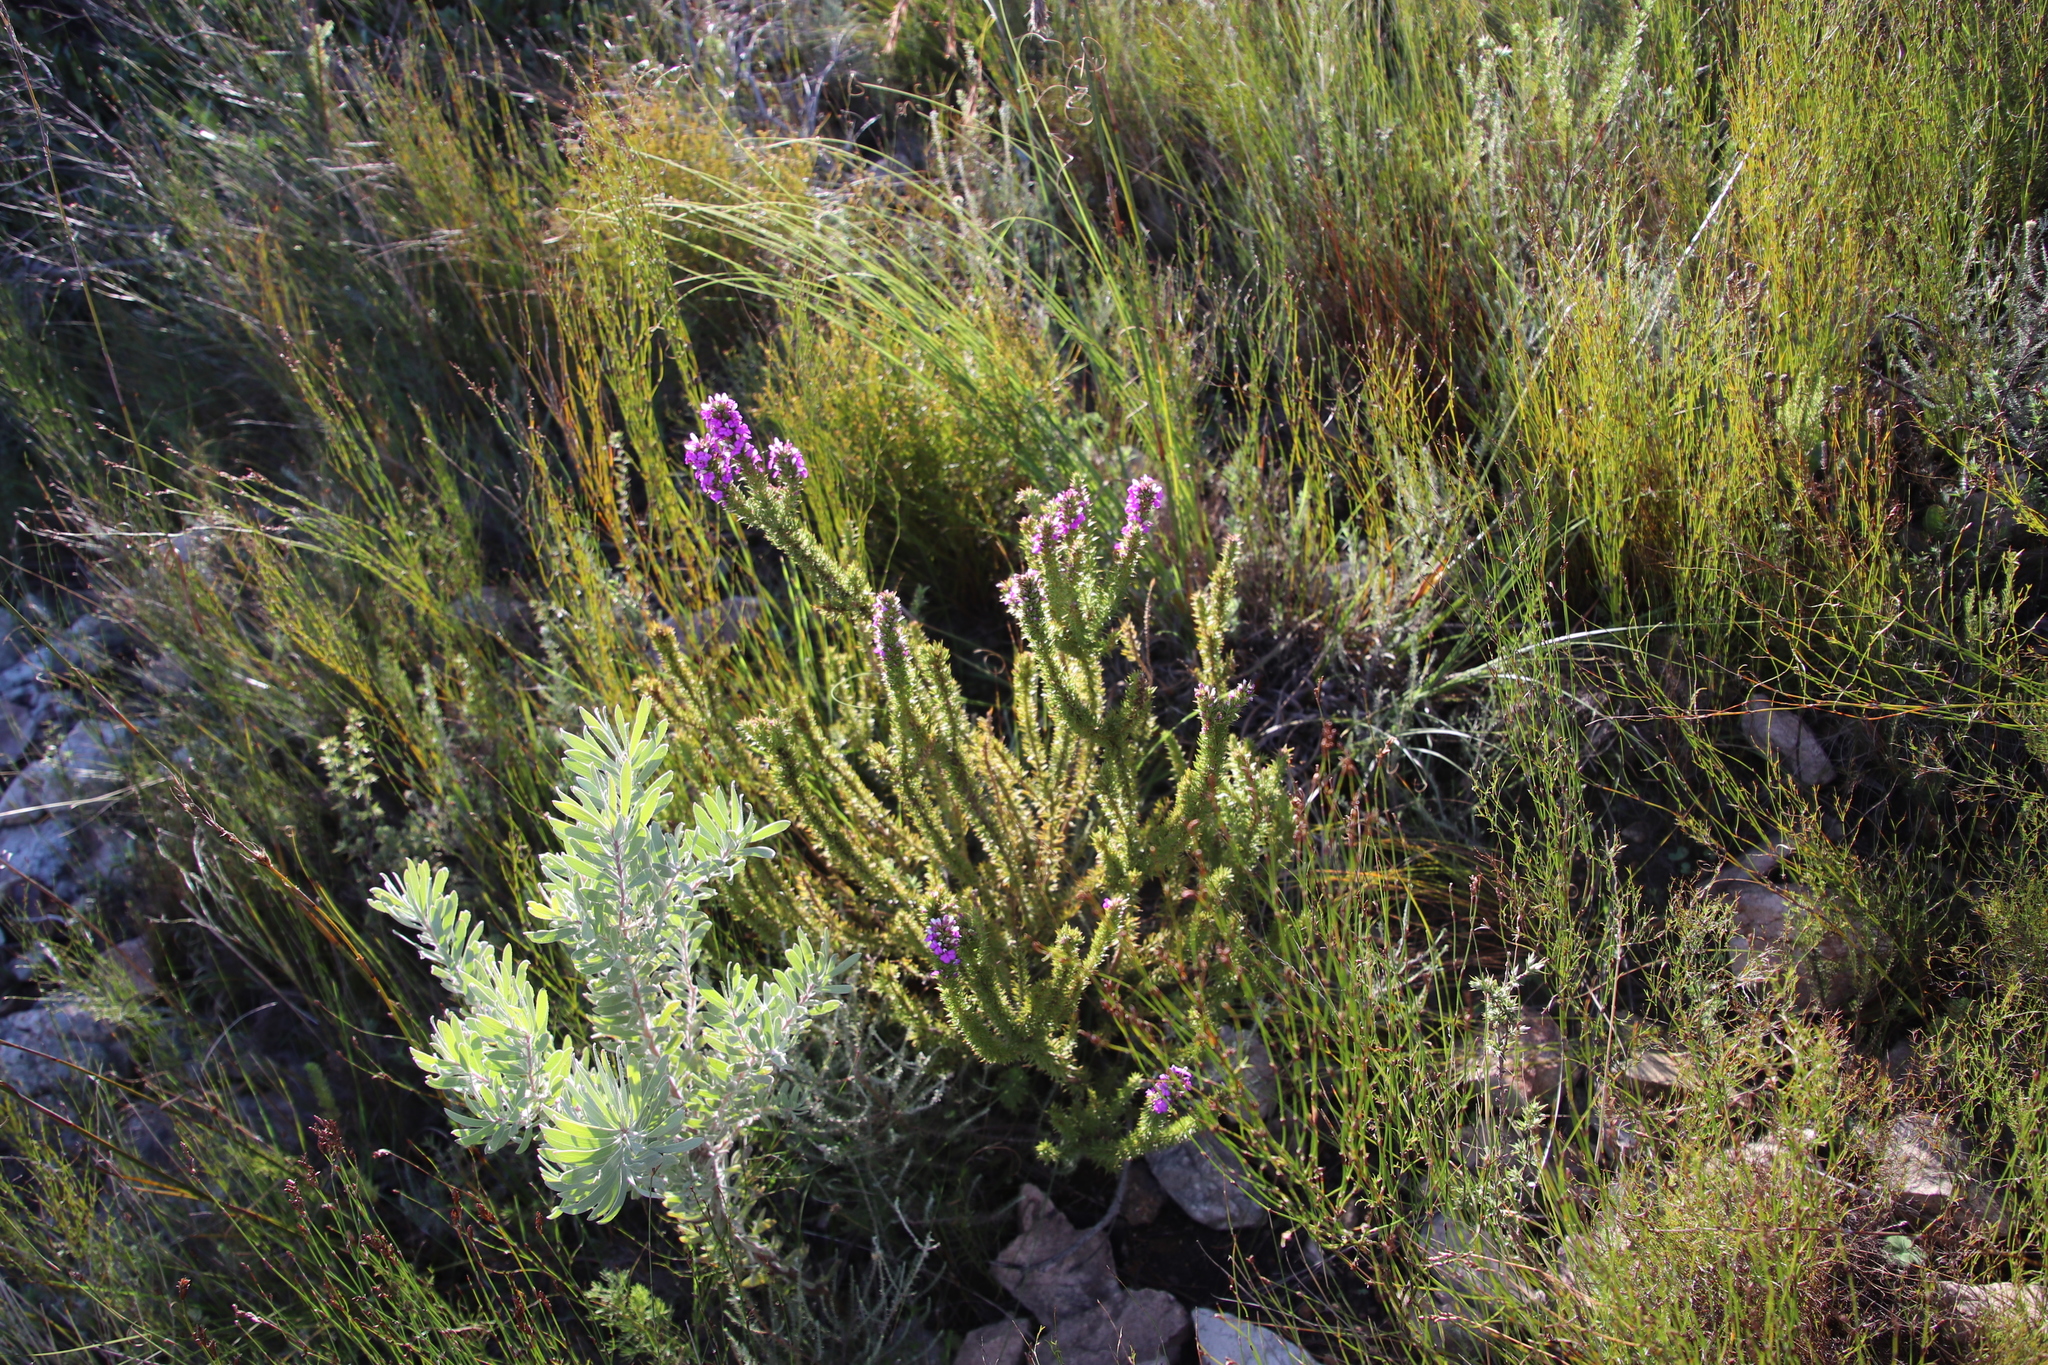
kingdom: Plantae
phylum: Tracheophyta
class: Magnoliopsida
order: Fabales
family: Polygalaceae
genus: Muraltia
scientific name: Muraltia heisteria
